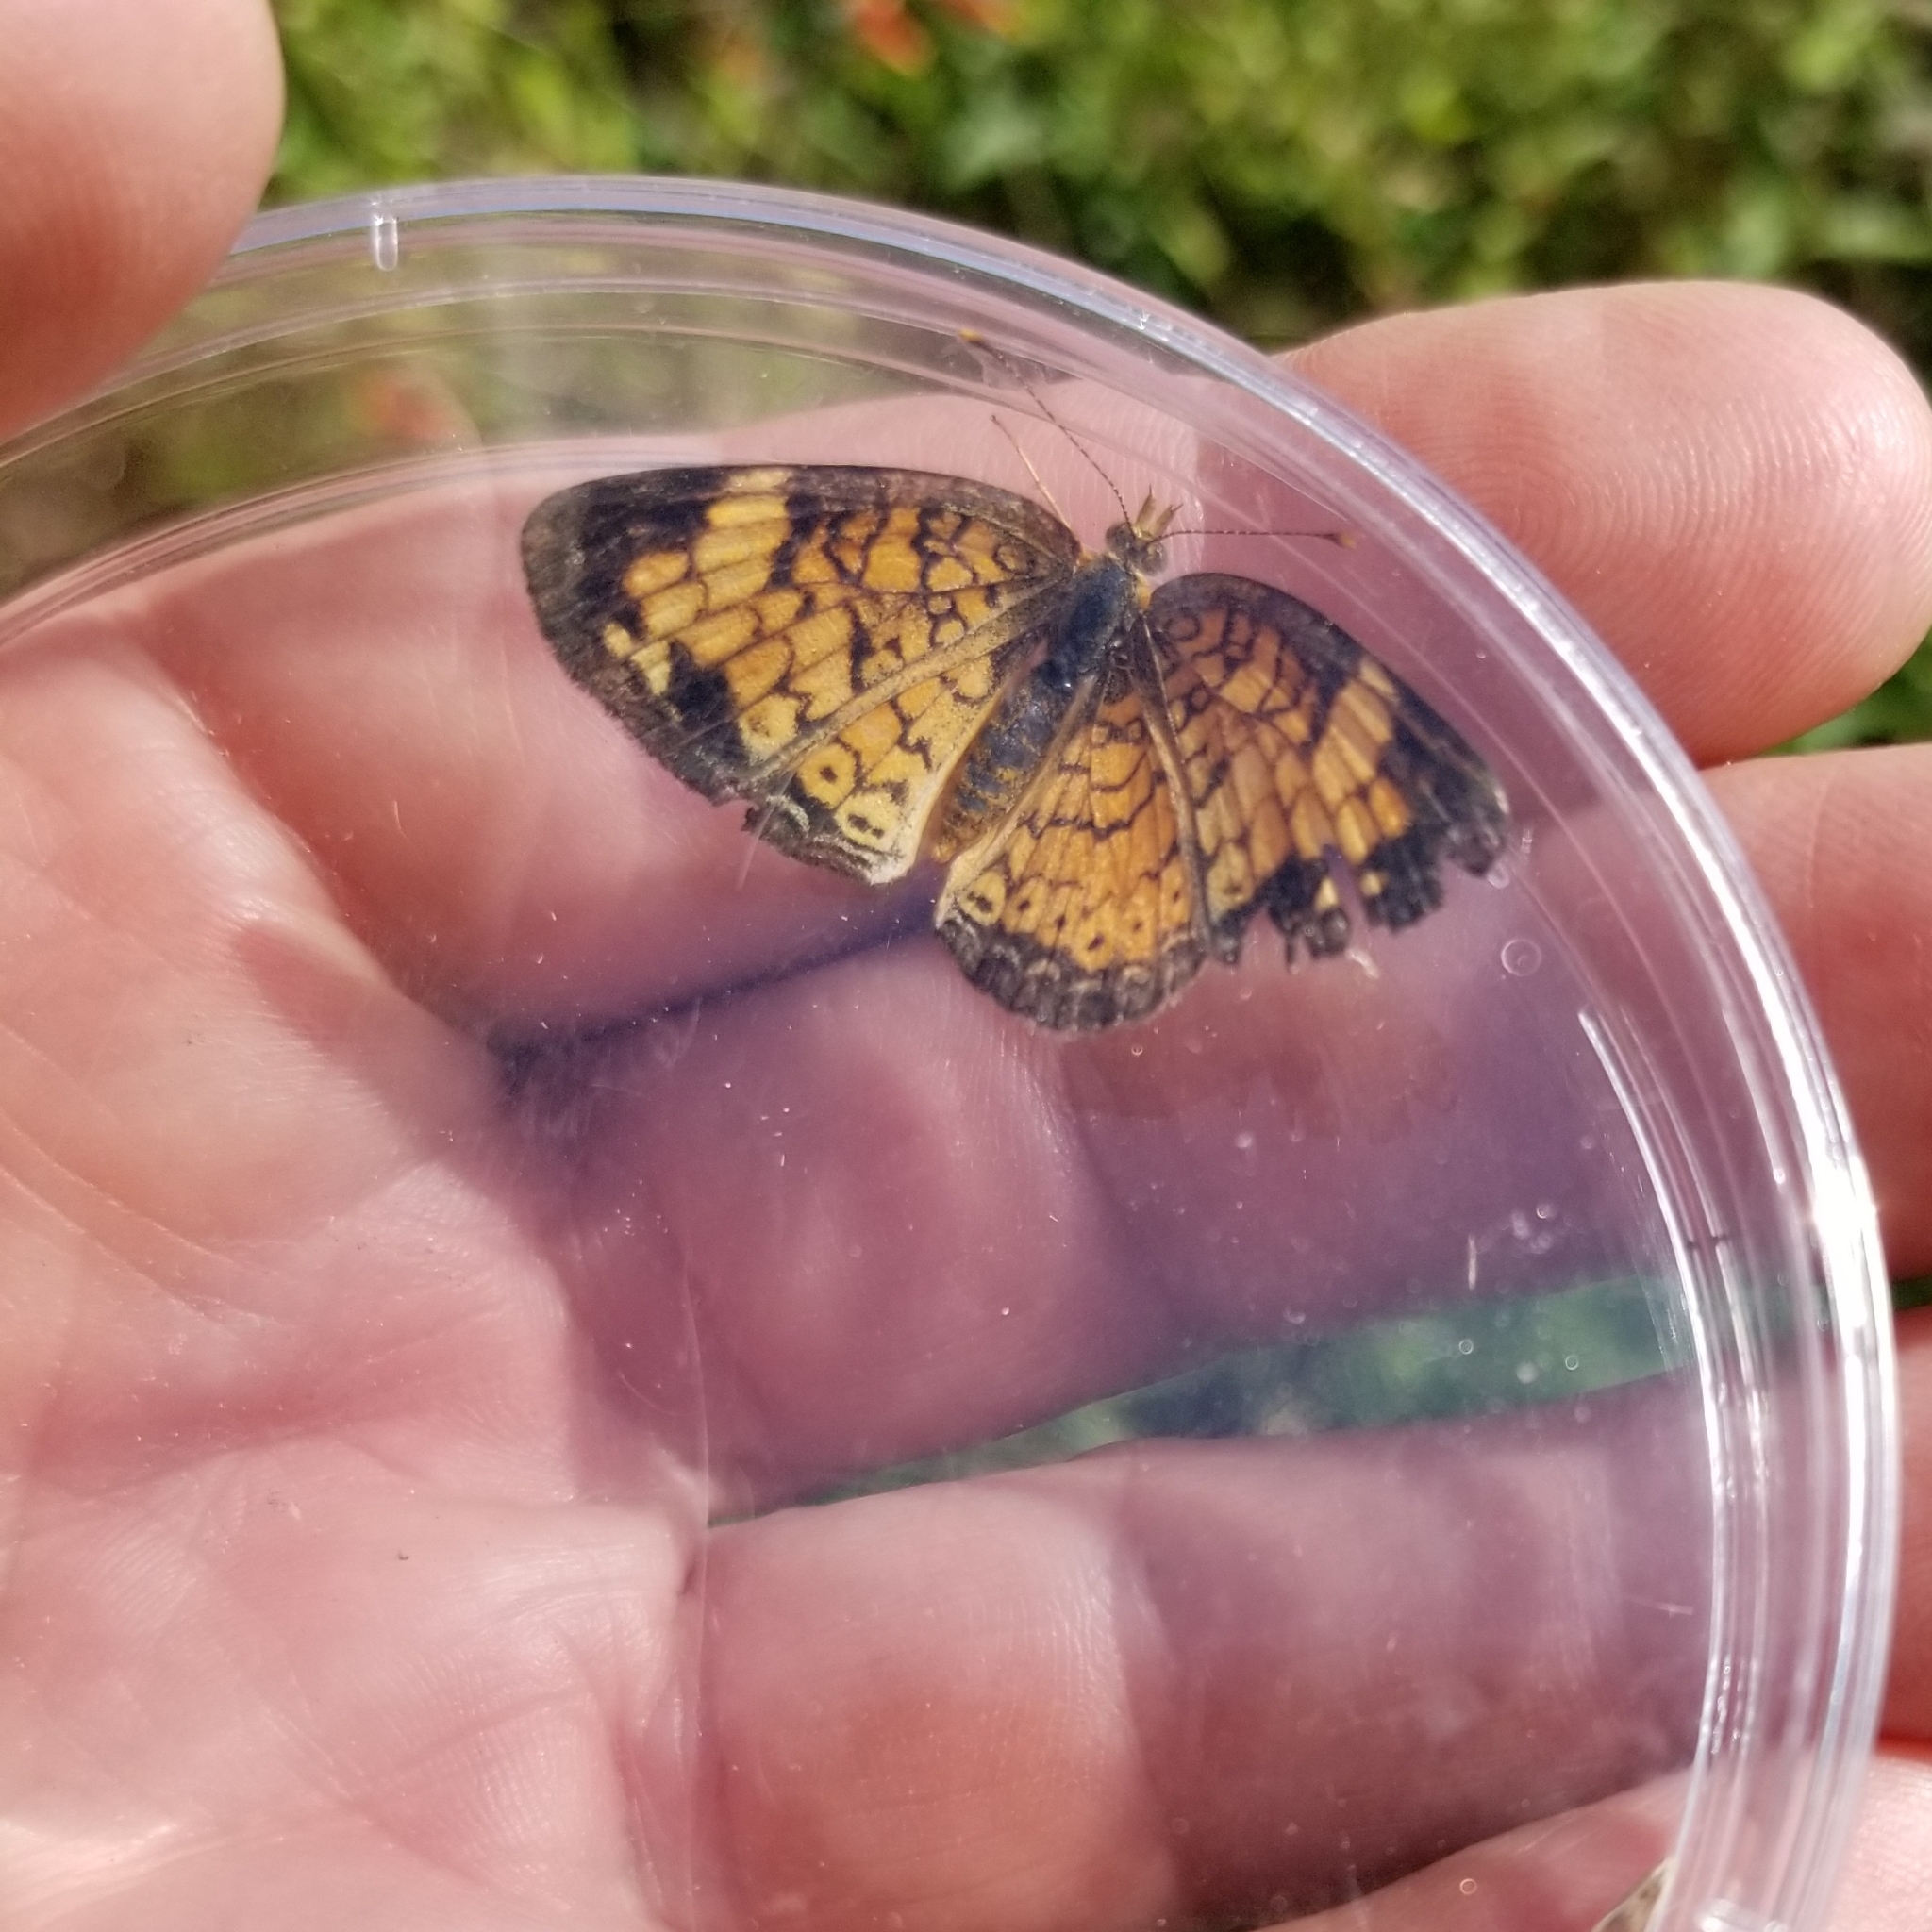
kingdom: Animalia
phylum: Arthropoda
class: Insecta
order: Lepidoptera
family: Nymphalidae
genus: Phyciodes
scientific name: Phyciodes tharos
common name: Pearl crescent
